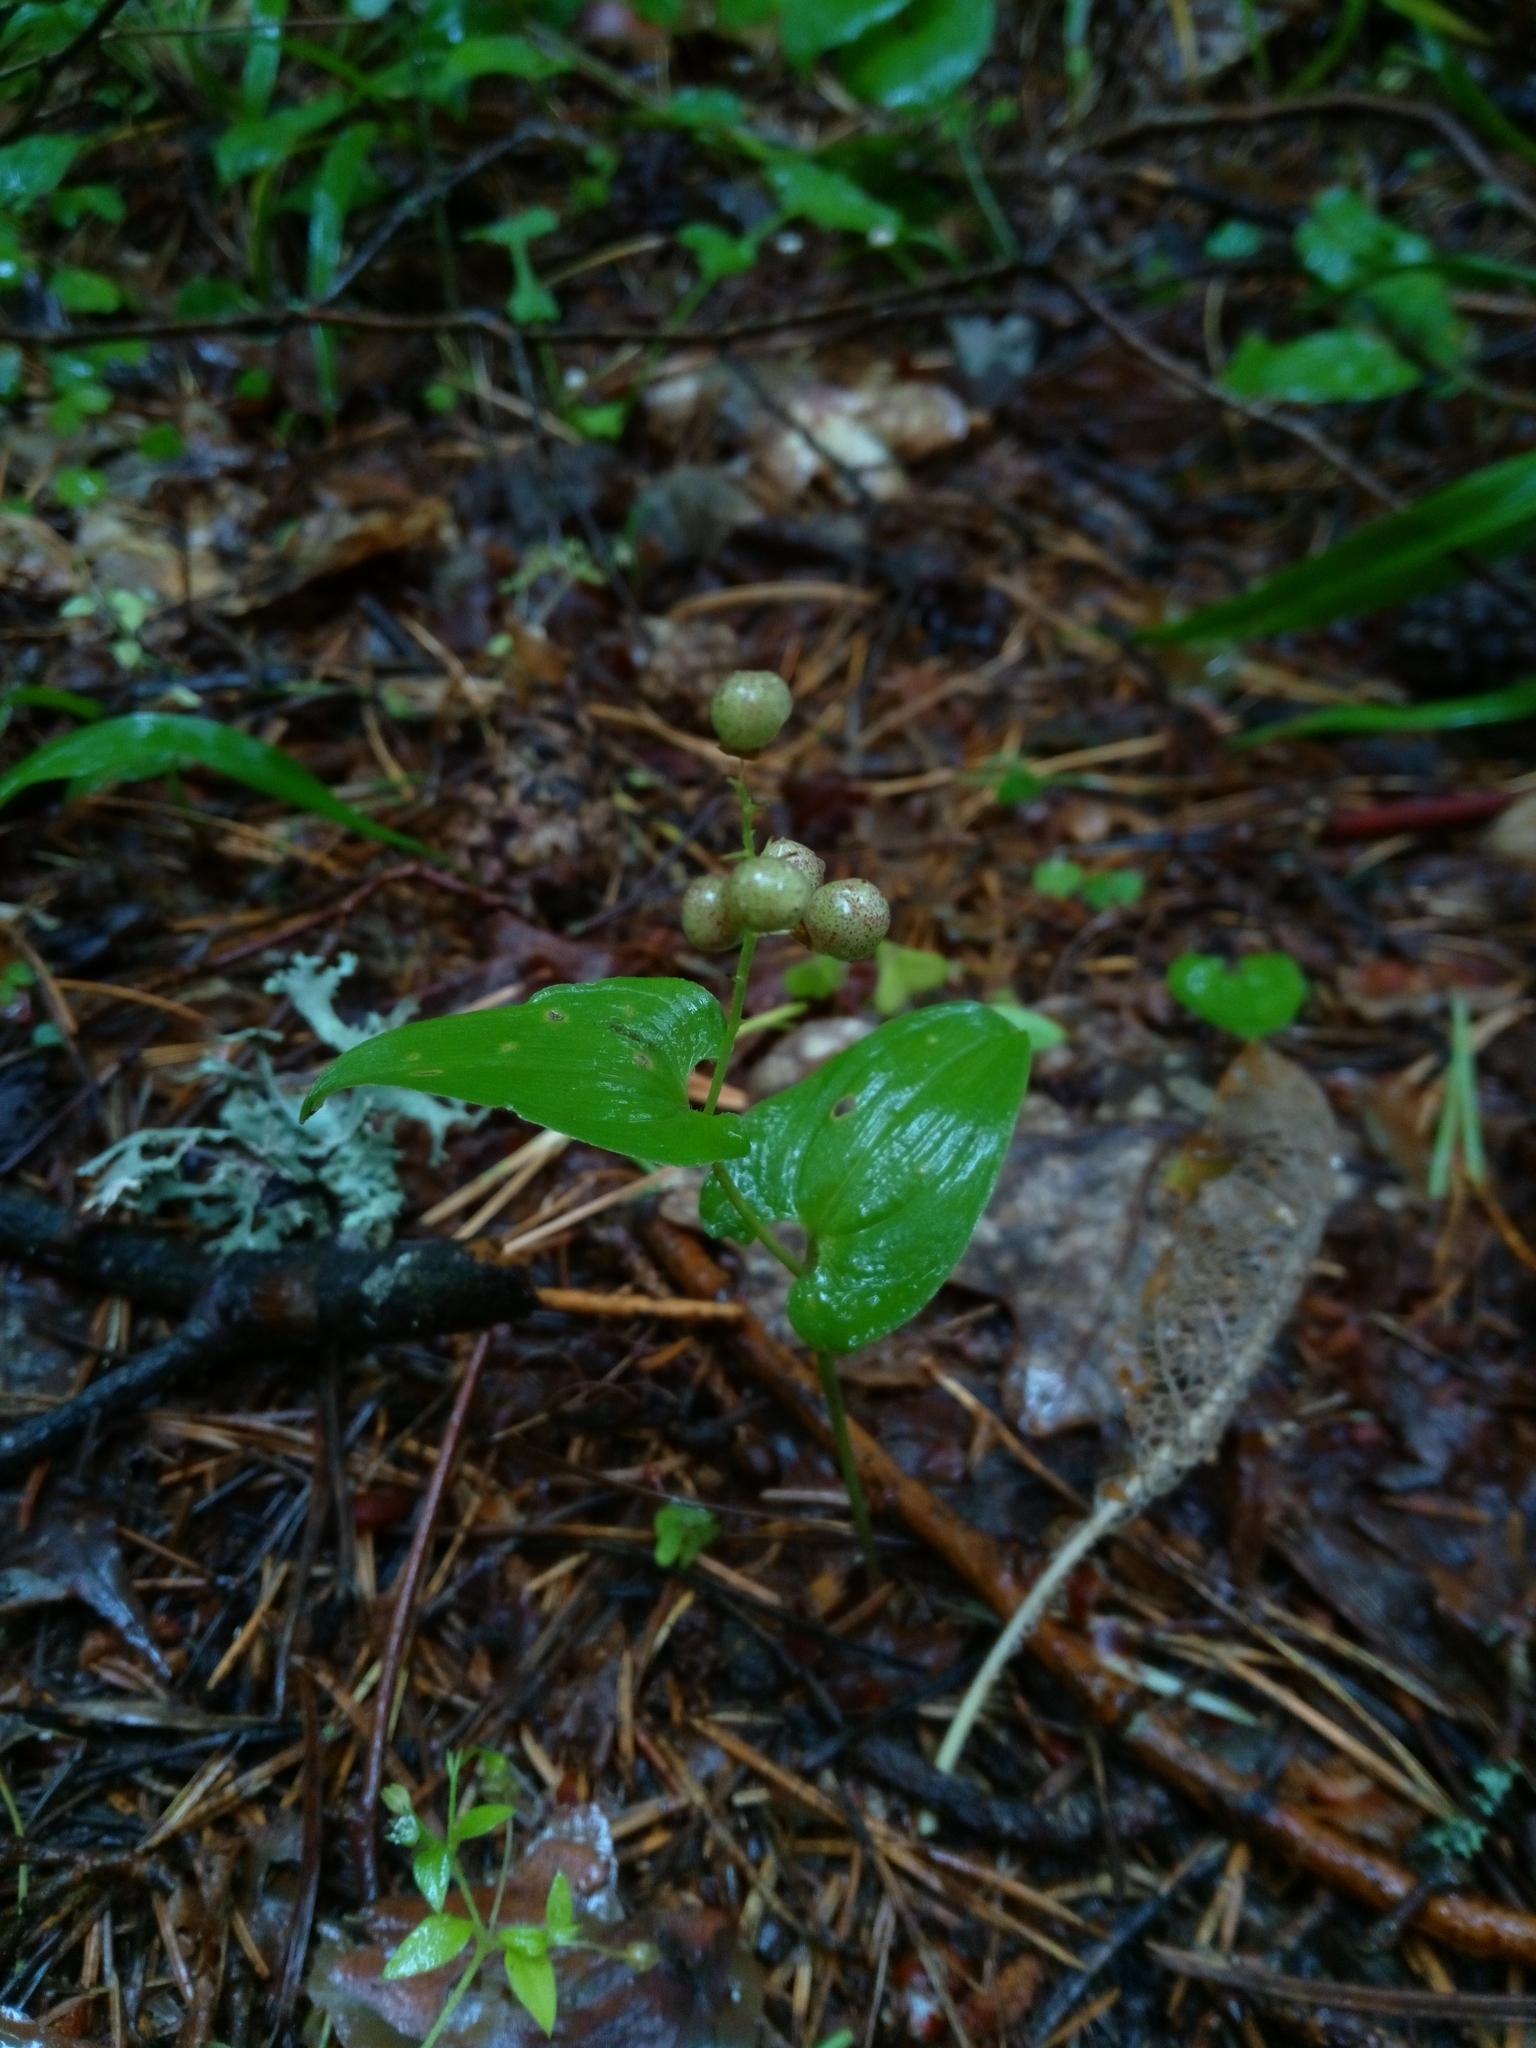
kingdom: Plantae
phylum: Tracheophyta
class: Liliopsida
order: Asparagales
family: Asparagaceae
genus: Maianthemum
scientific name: Maianthemum bifolium
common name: May lily
